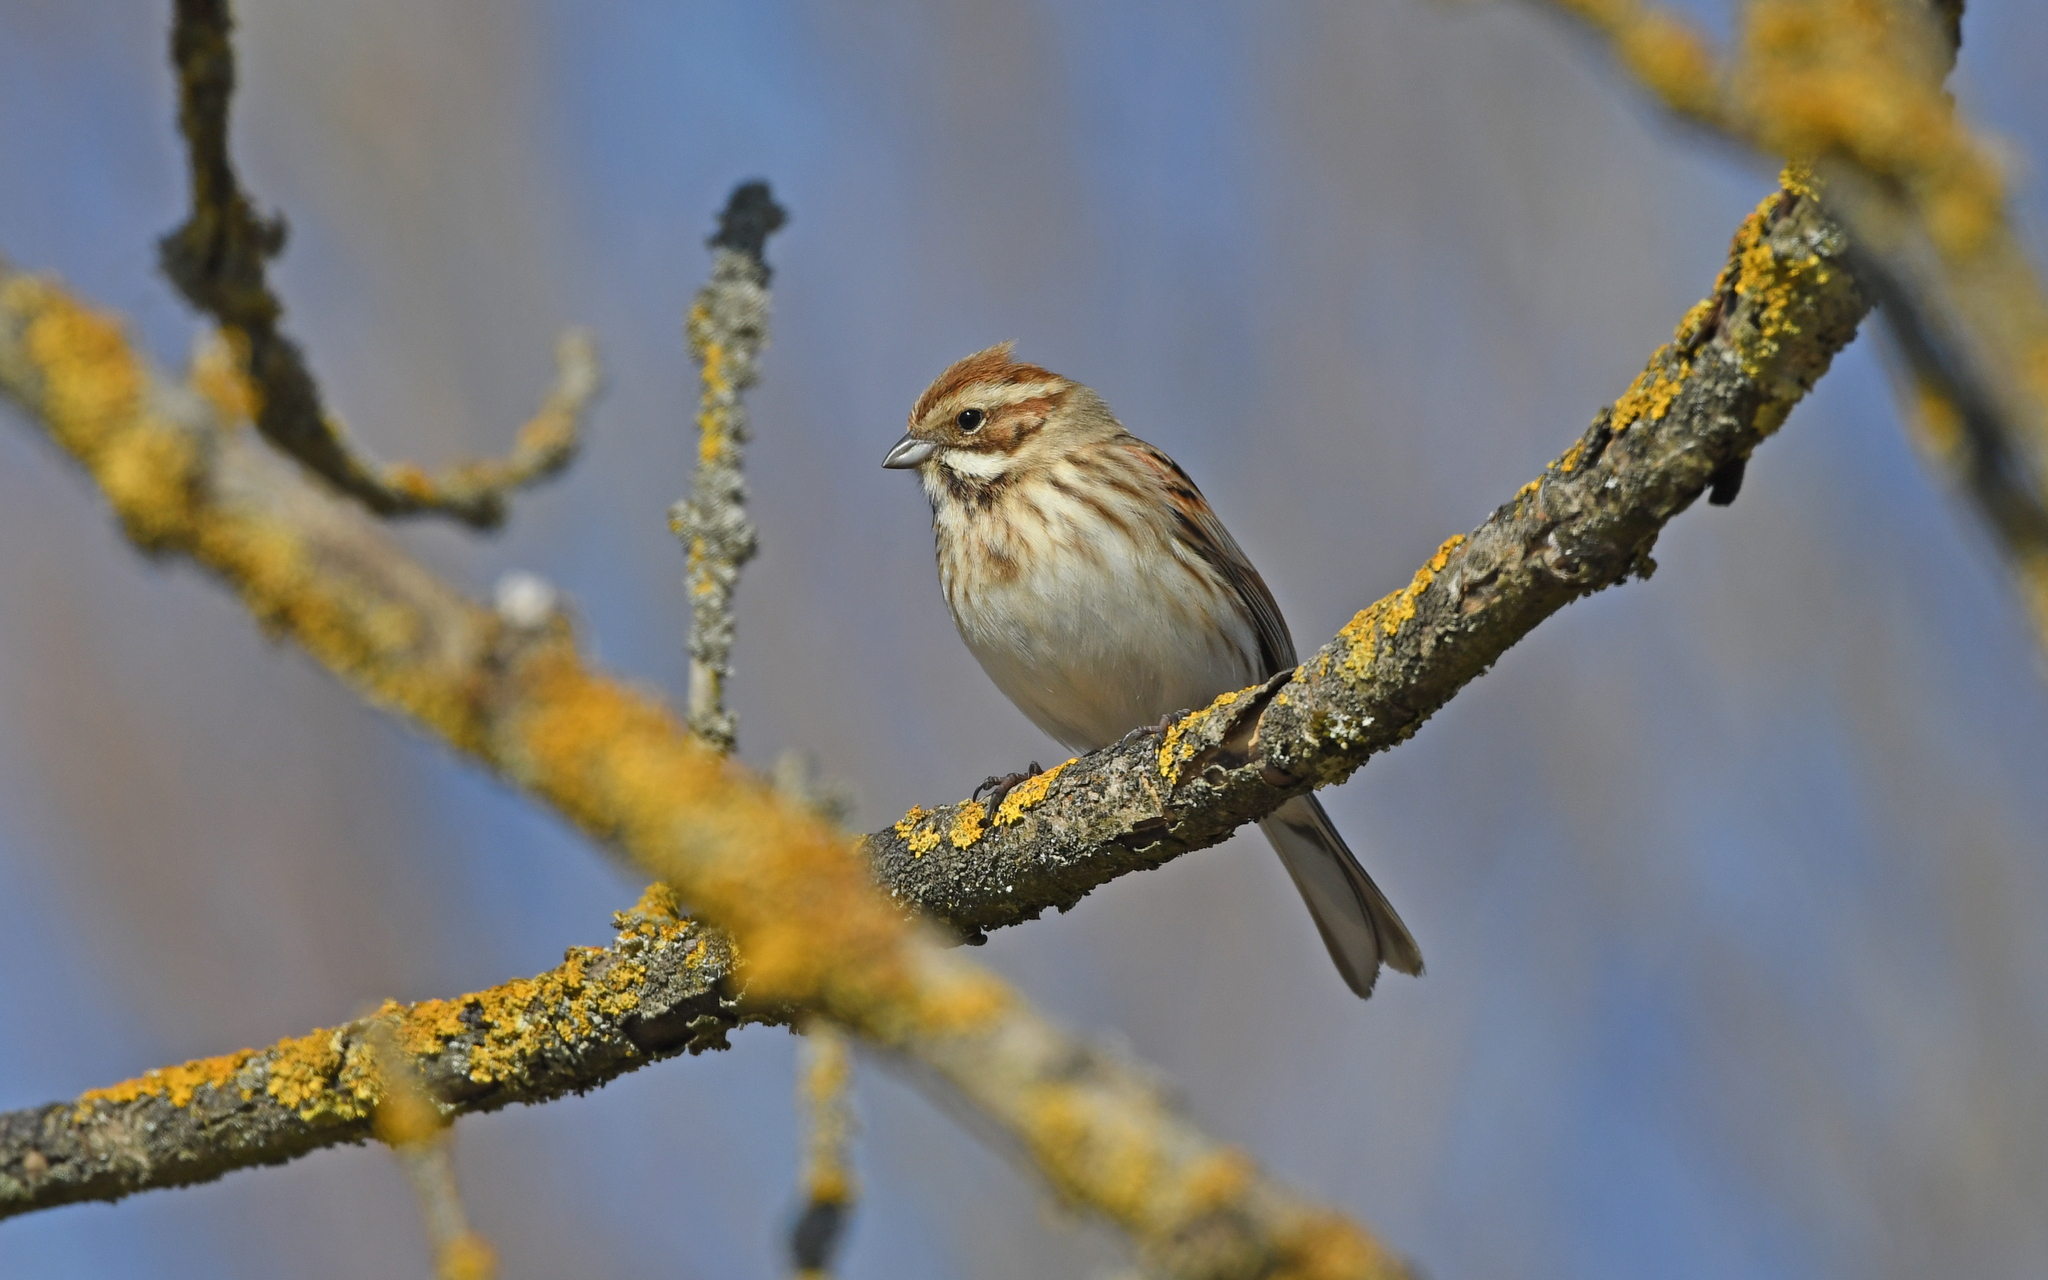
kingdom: Animalia
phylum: Chordata
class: Aves
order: Passeriformes
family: Emberizidae
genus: Emberiza
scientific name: Emberiza schoeniclus
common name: Reed bunting
